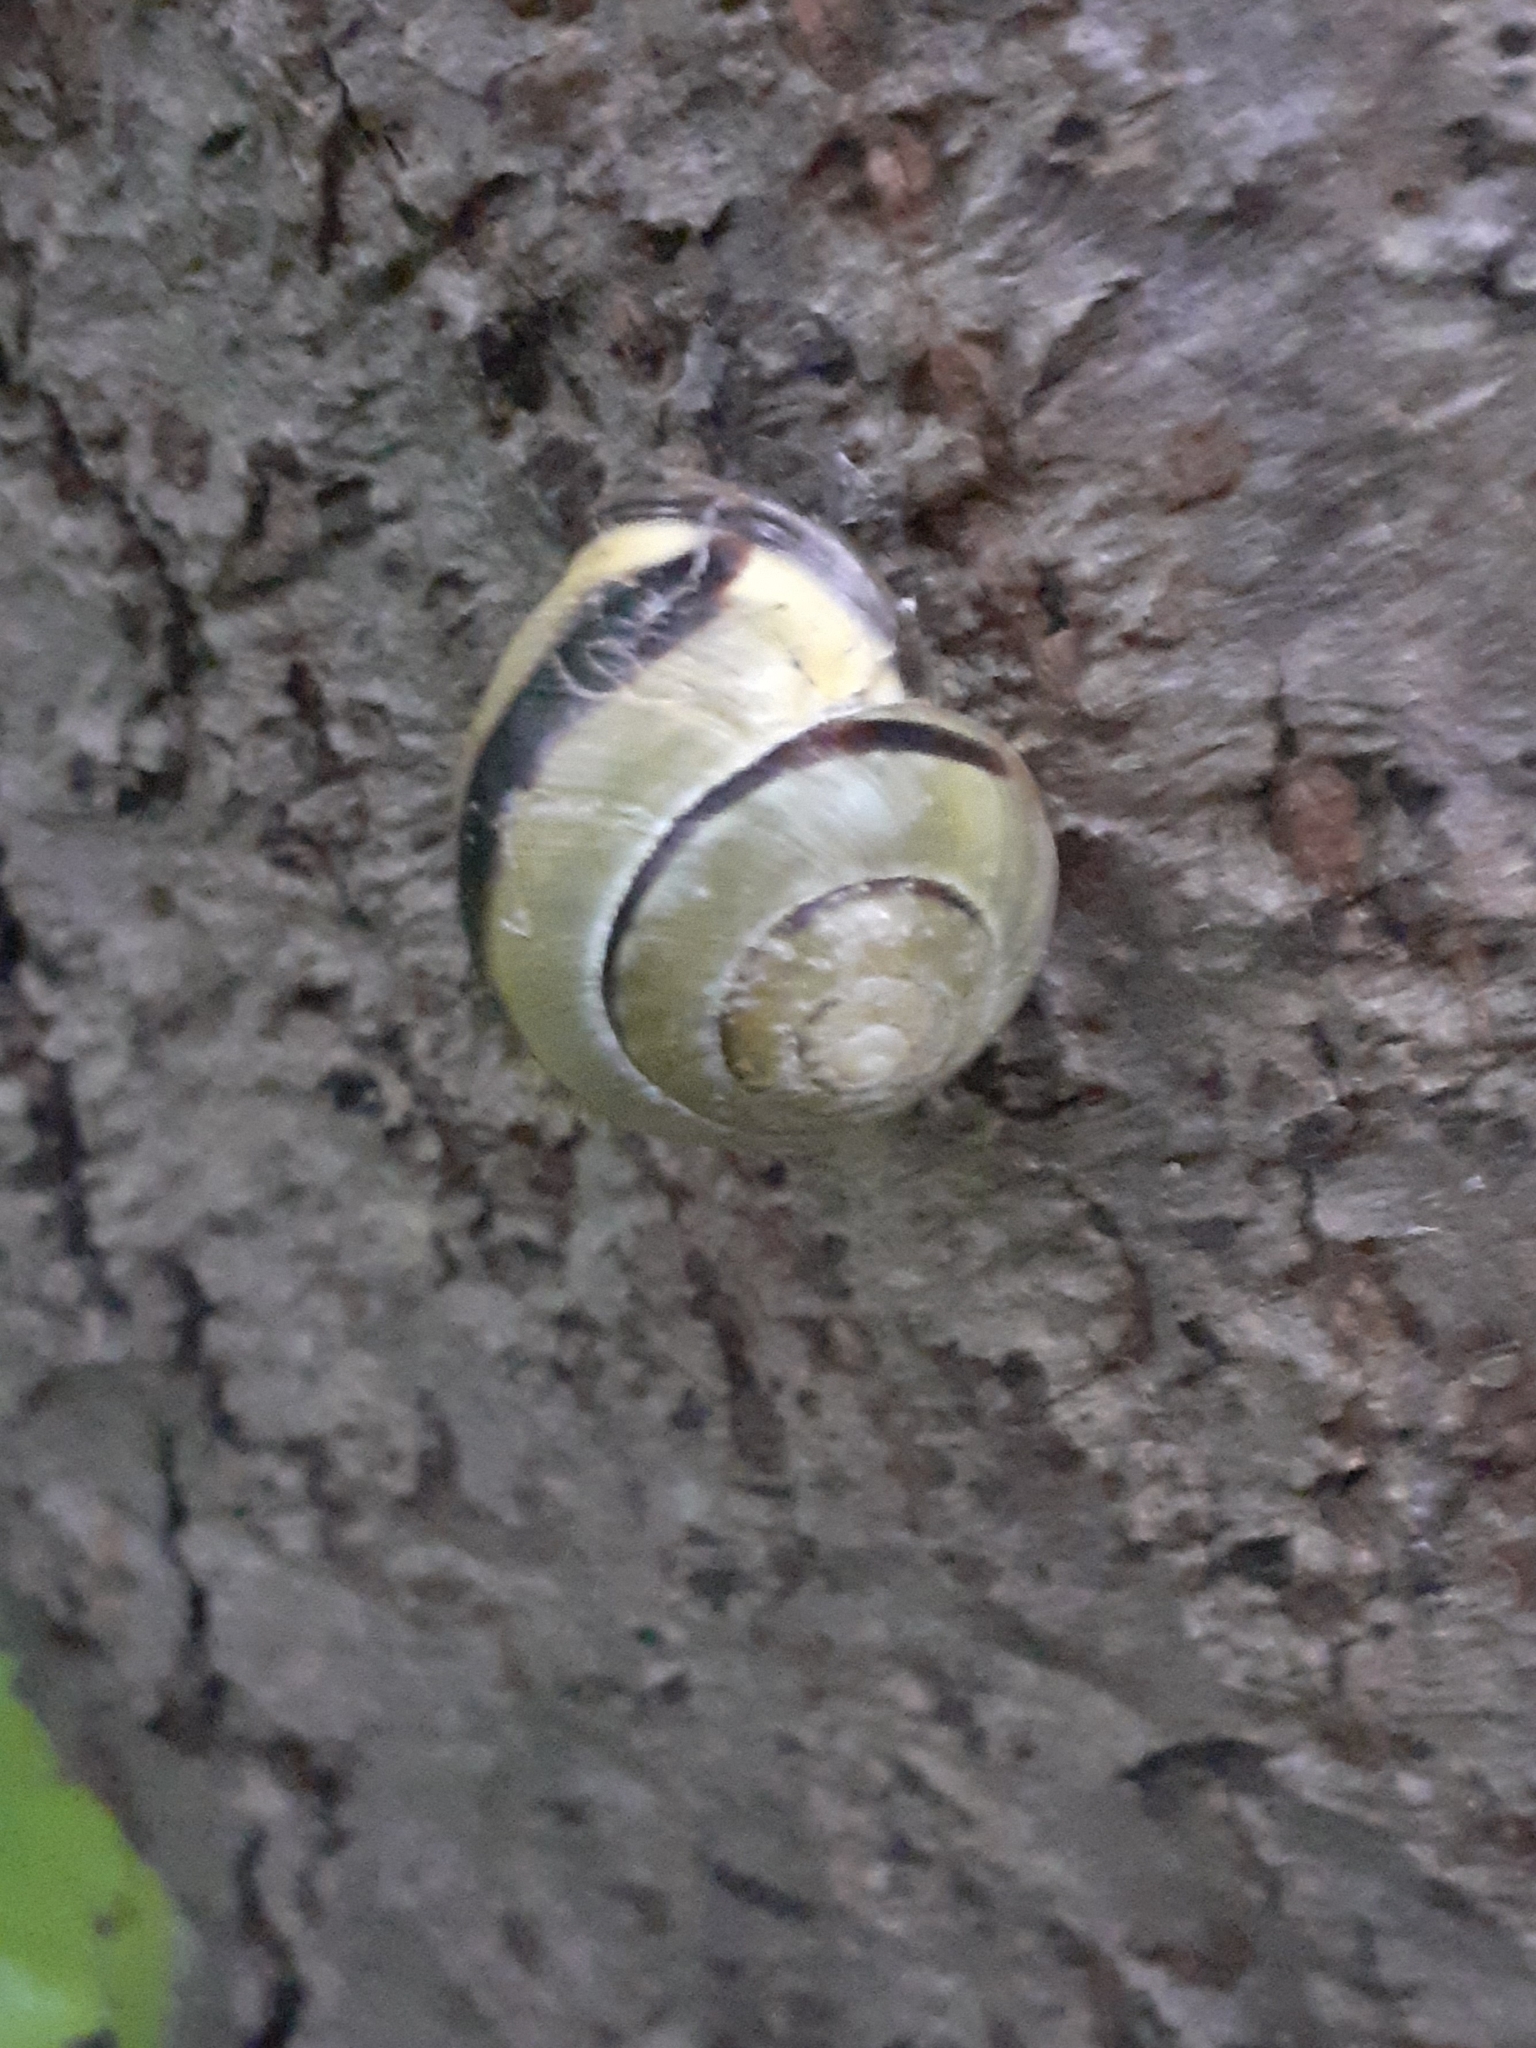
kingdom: Animalia
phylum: Mollusca
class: Gastropoda
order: Stylommatophora
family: Helicidae
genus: Cepaea
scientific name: Cepaea nemoralis
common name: Grovesnail
